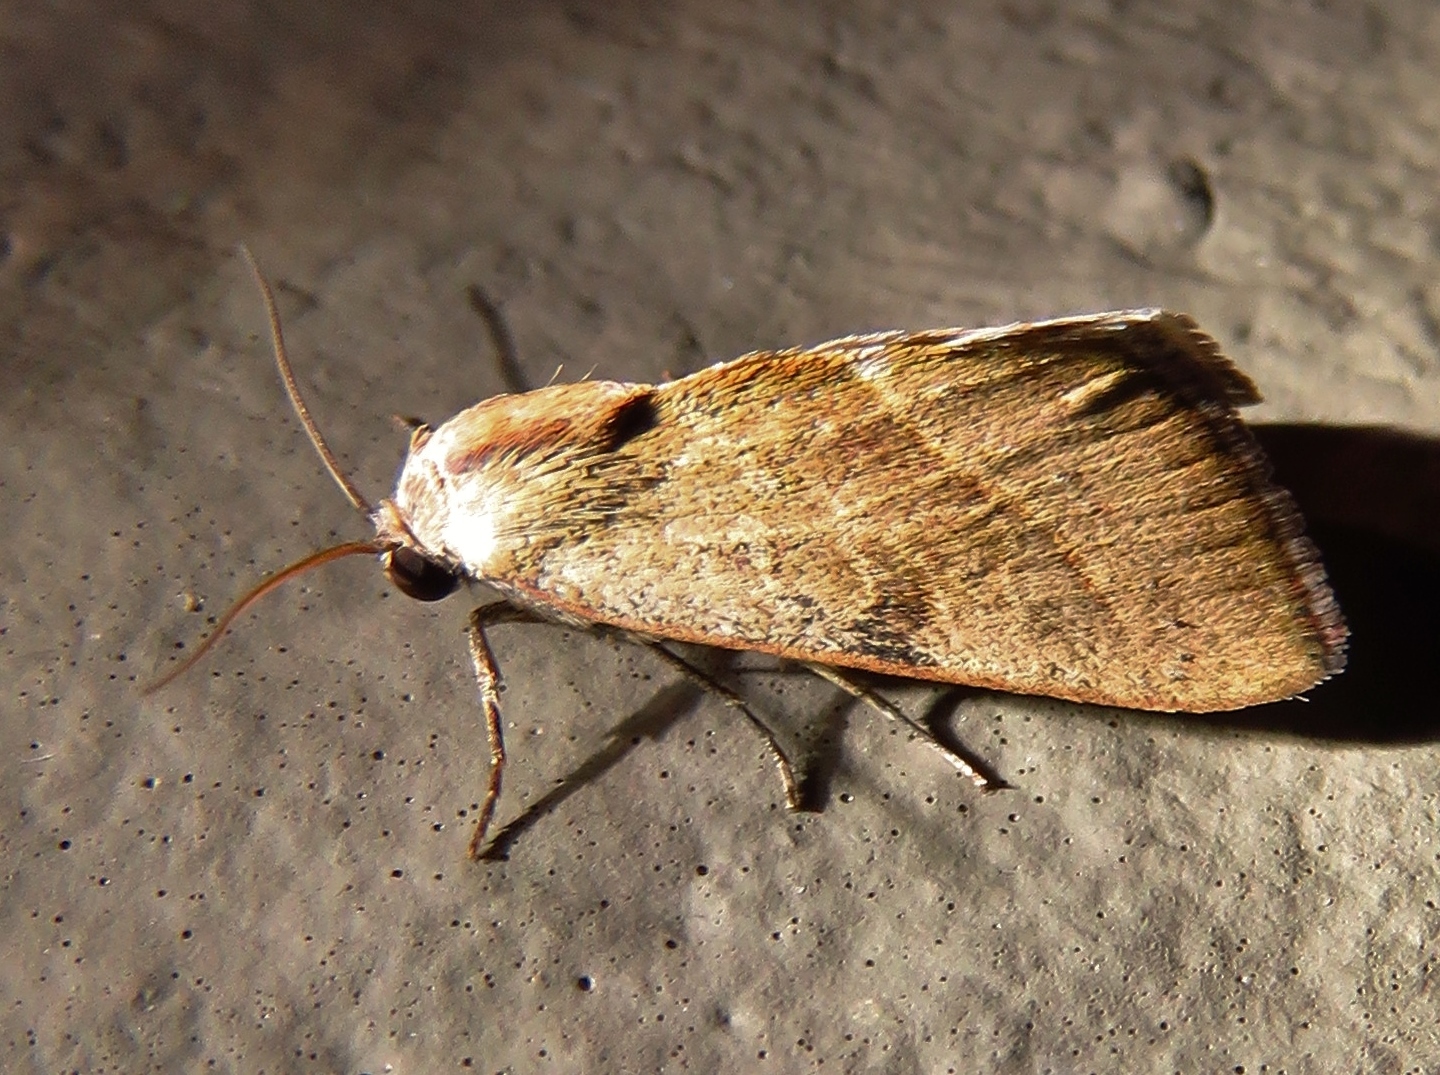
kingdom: Animalia
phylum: Arthropoda
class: Insecta
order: Lepidoptera
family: Noctuidae
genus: Galgula
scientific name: Galgula partita
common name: Wedgeling
